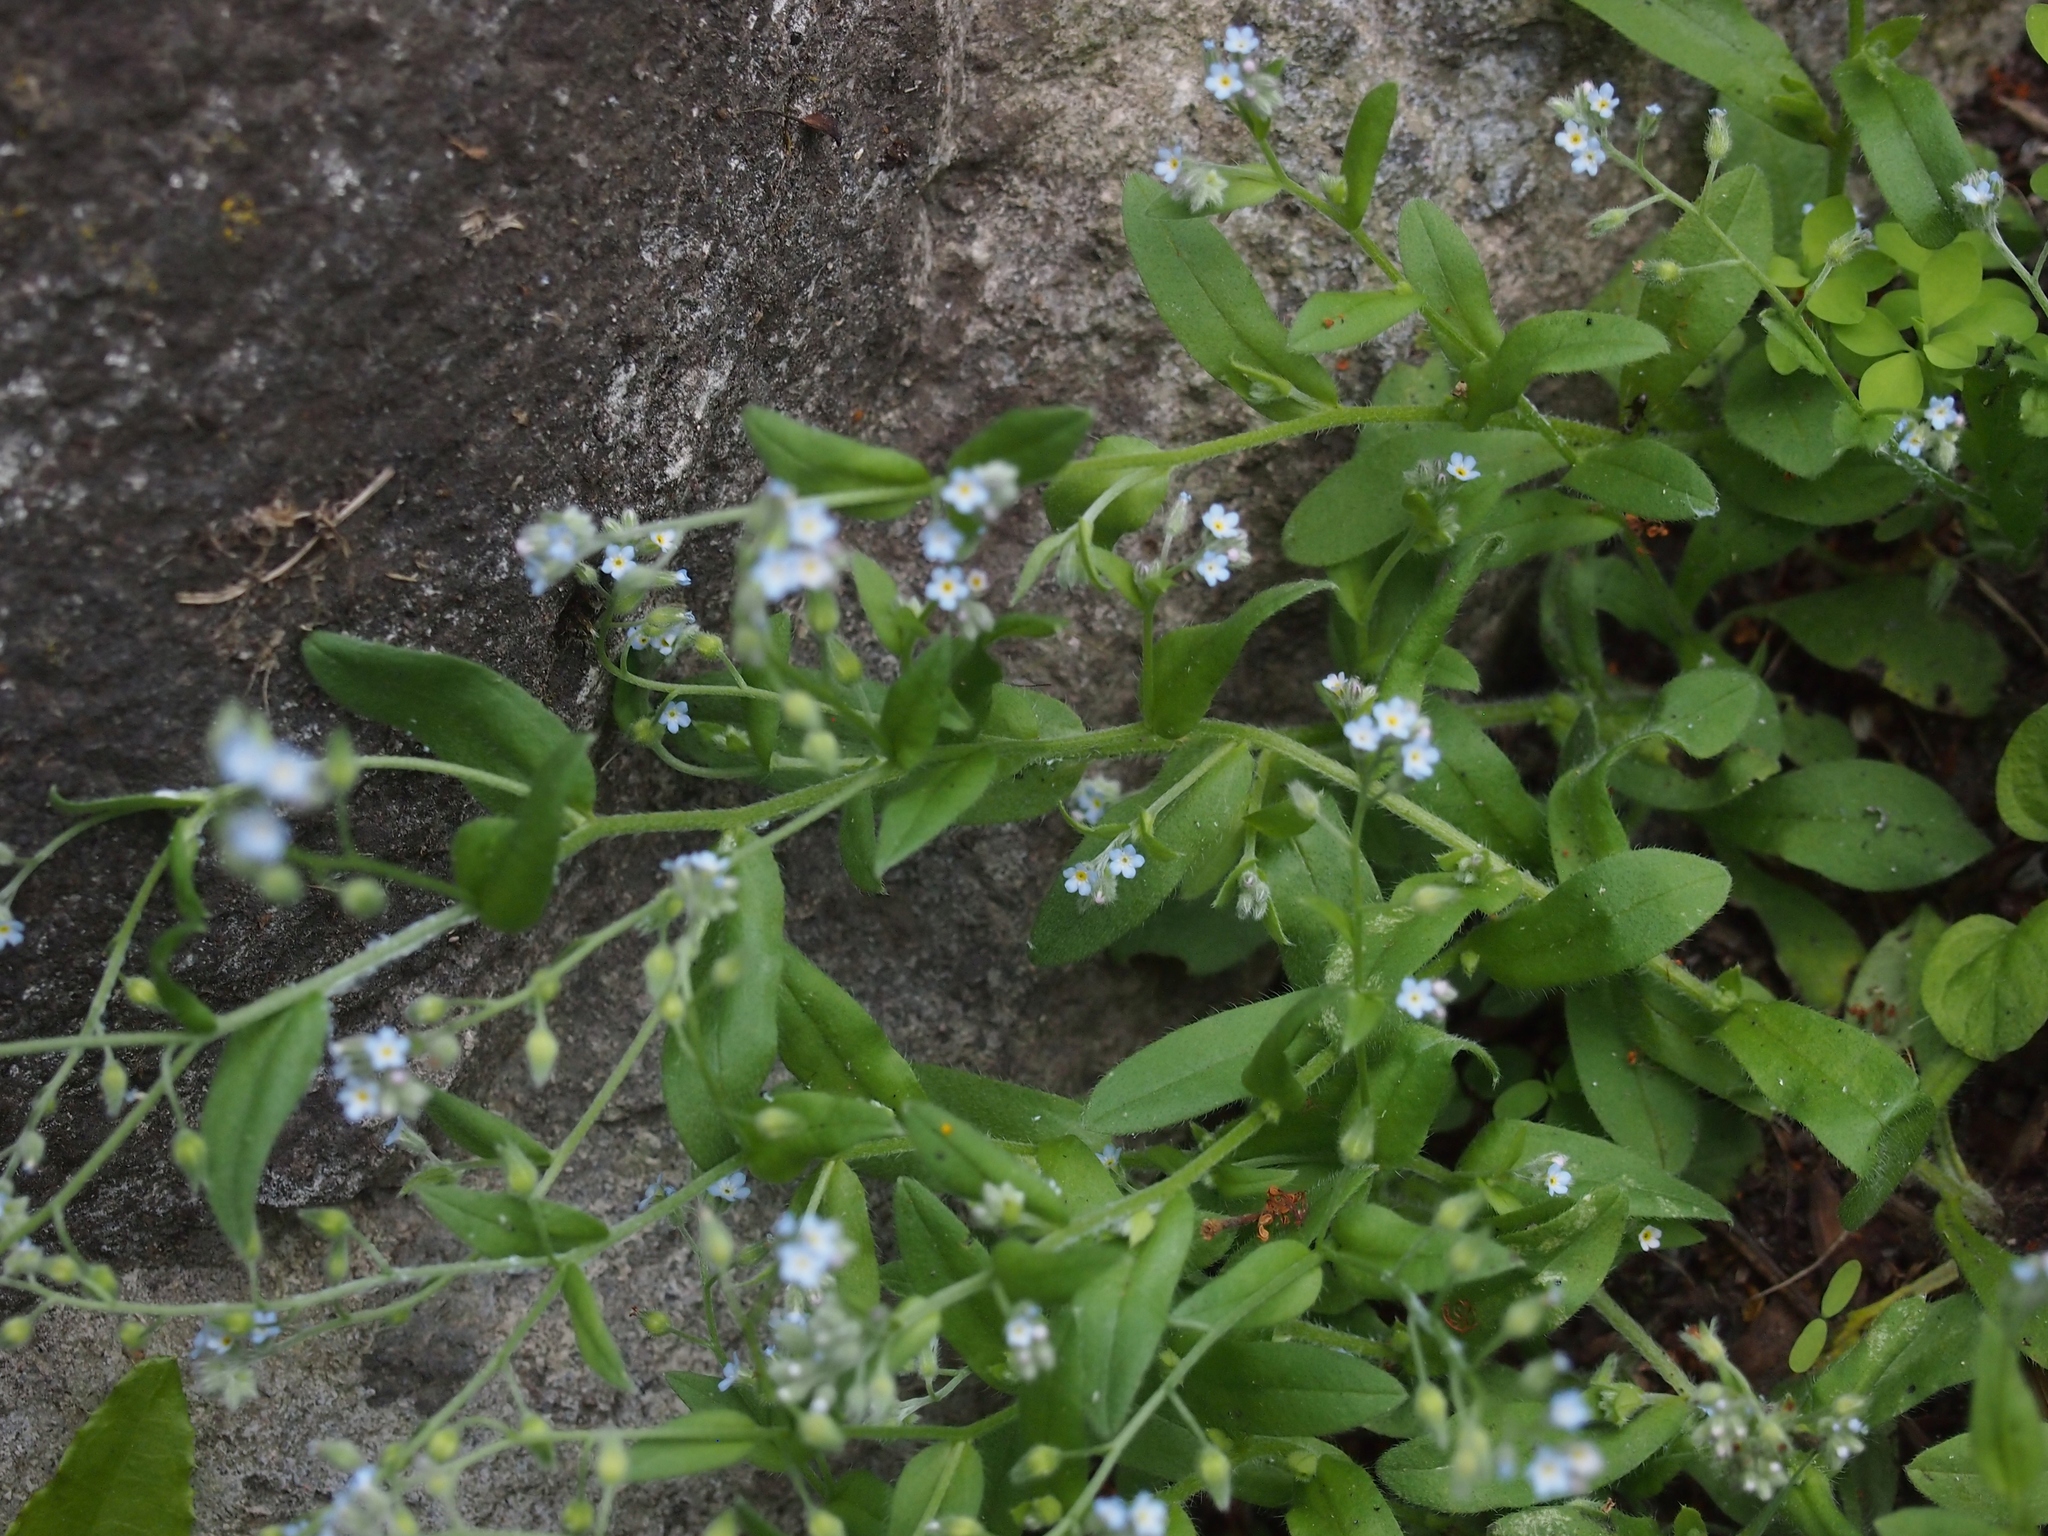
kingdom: Plantae
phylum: Tracheophyta
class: Magnoliopsida
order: Boraginales
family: Boraginaceae
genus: Myosotis
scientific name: Myosotis arvensis
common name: Field forget-me-not
